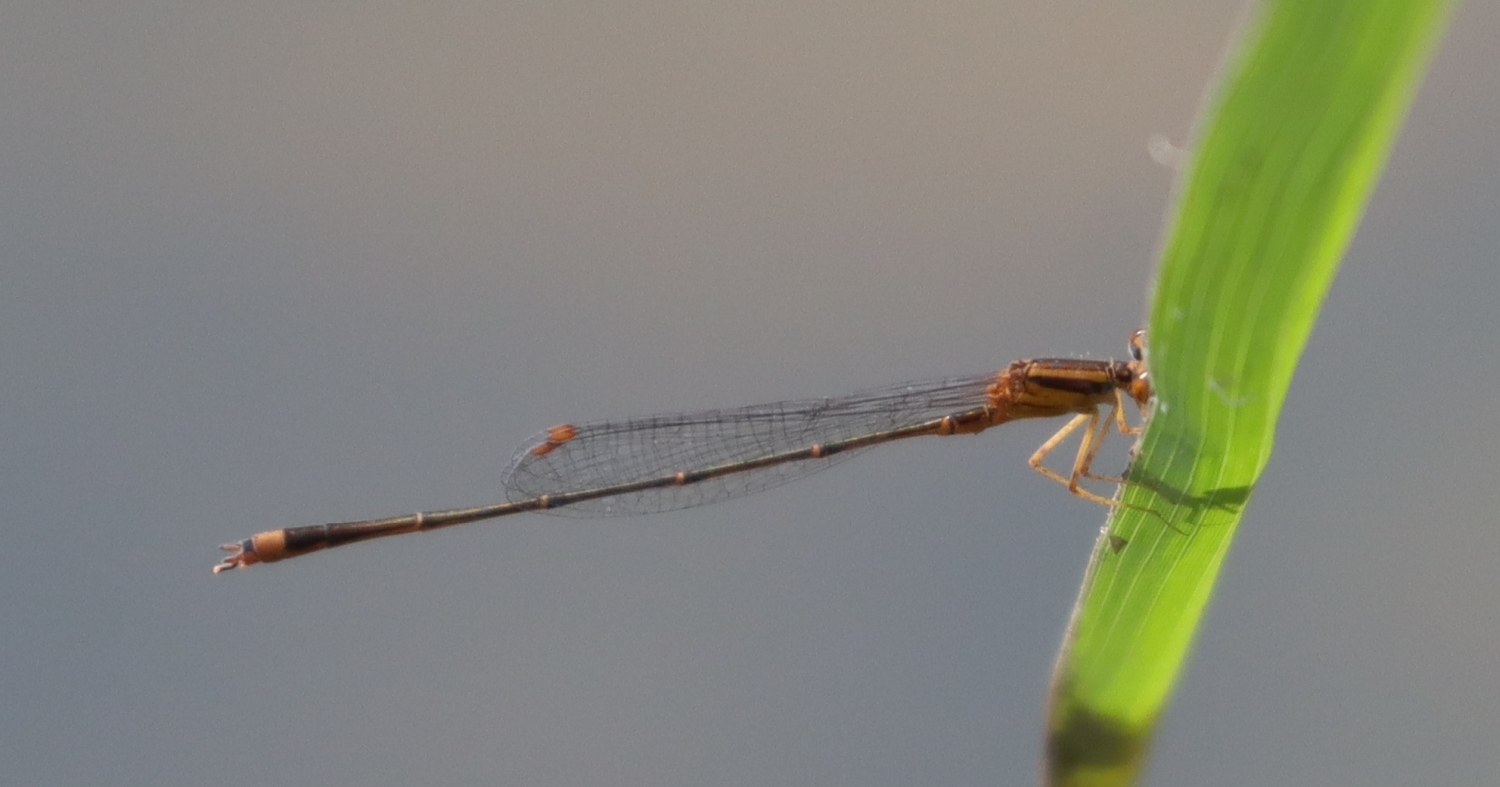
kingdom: Animalia
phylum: Arthropoda
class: Insecta
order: Odonata
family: Coenagrionidae
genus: Enallagma
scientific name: Enallagma signatum
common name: Orange bluet
